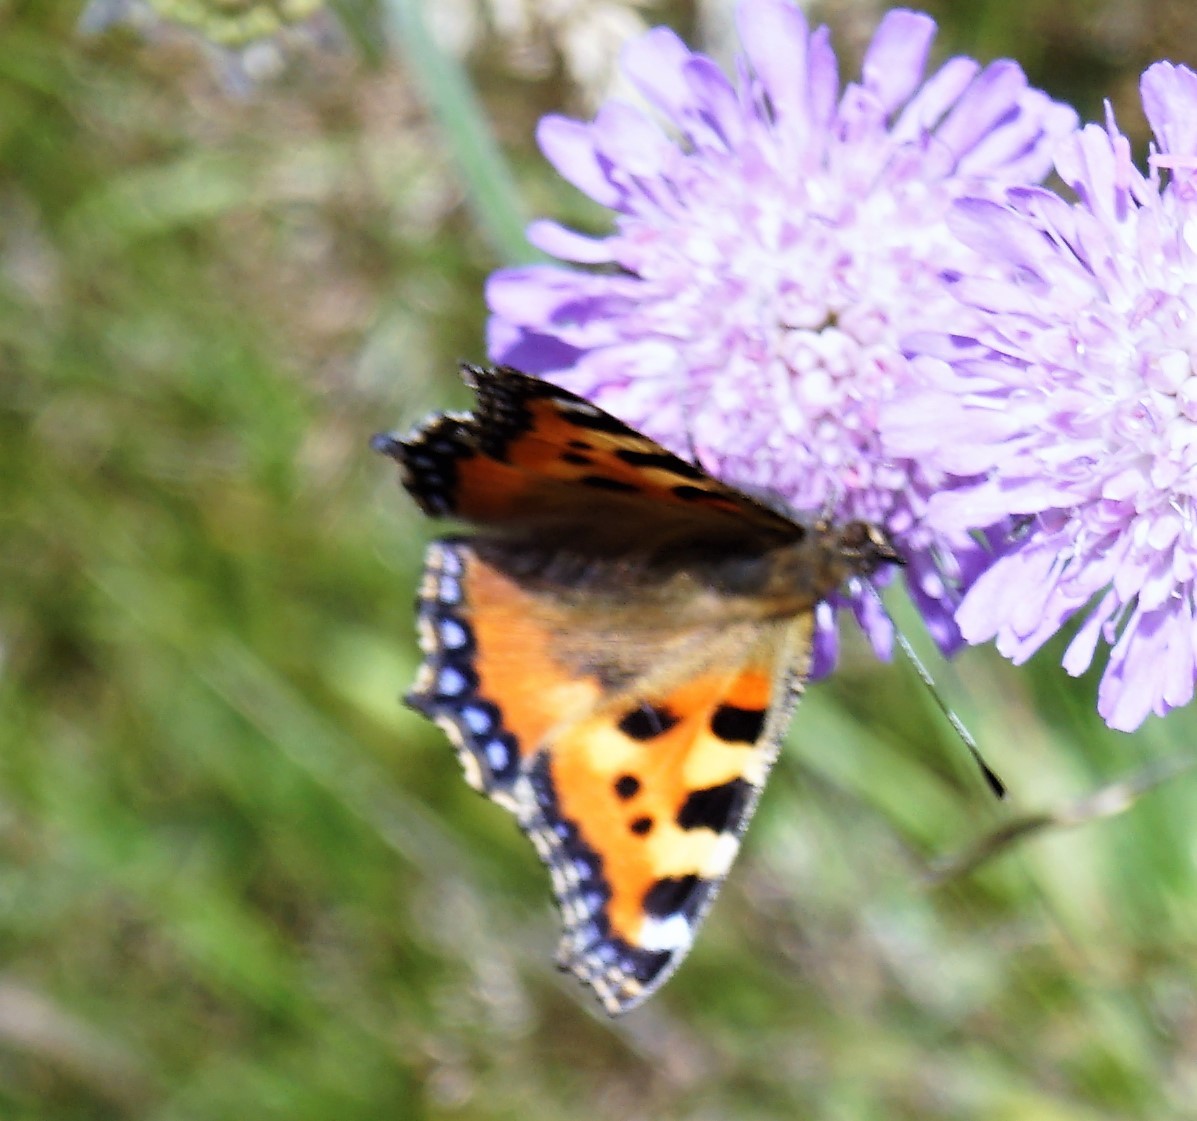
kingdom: Animalia
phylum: Arthropoda
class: Insecta
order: Lepidoptera
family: Nymphalidae
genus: Aglais
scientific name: Aglais urticae
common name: Small tortoiseshell
